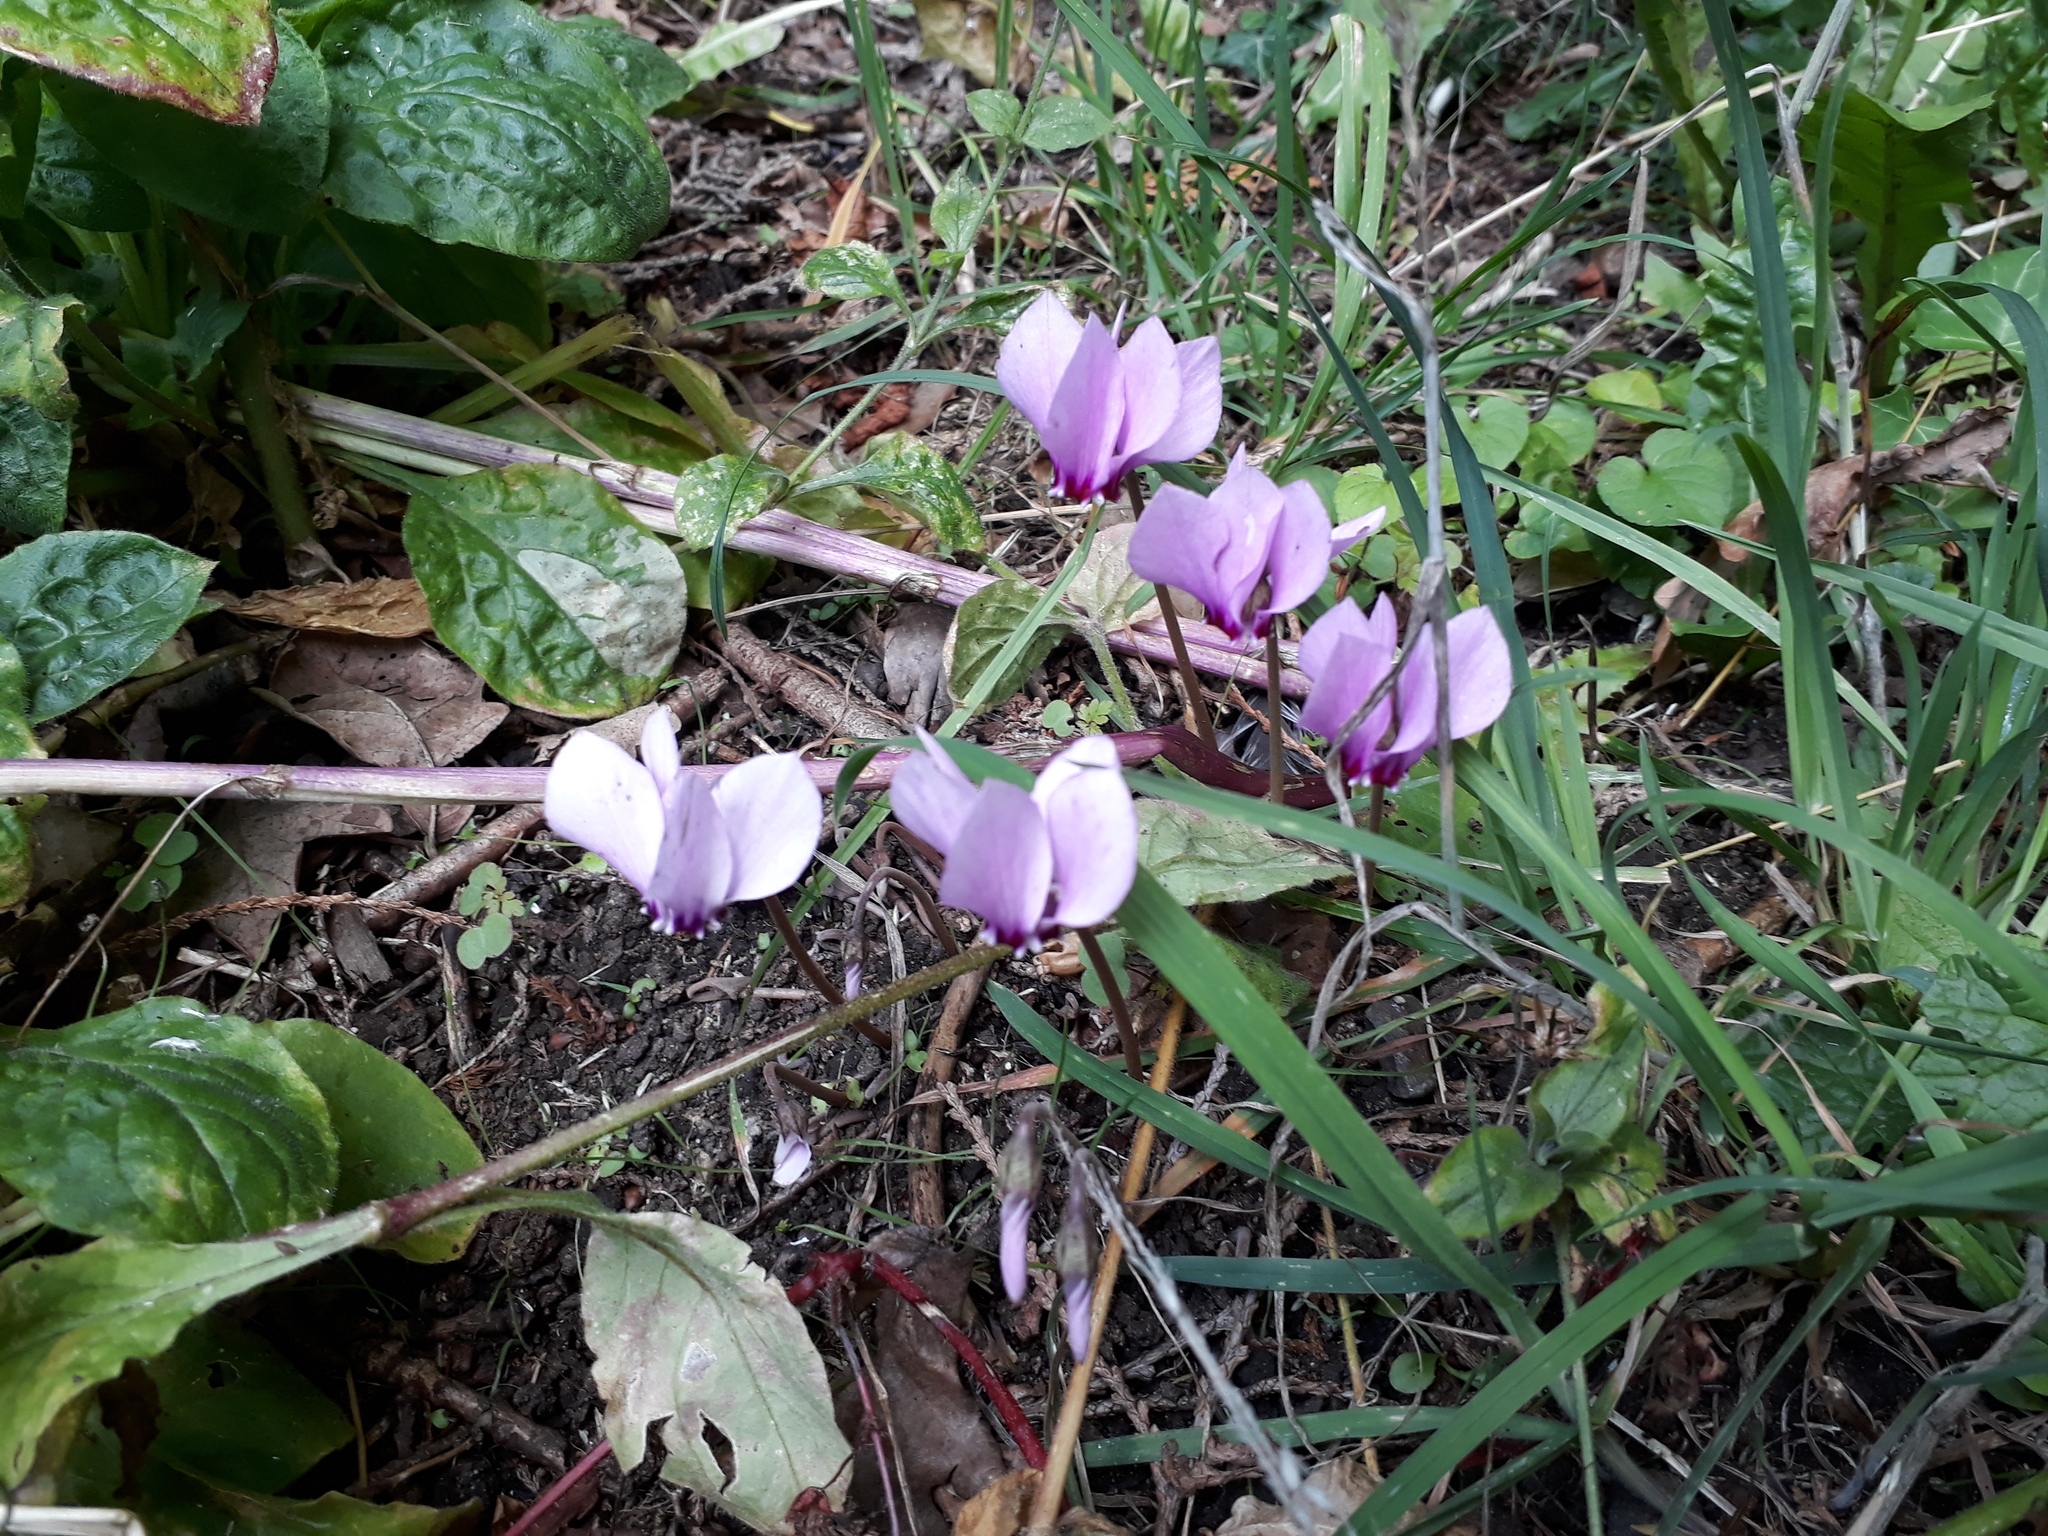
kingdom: Plantae
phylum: Tracheophyta
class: Magnoliopsida
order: Ericales
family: Primulaceae
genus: Cyclamen
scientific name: Cyclamen hederifolium
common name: Sowbread
